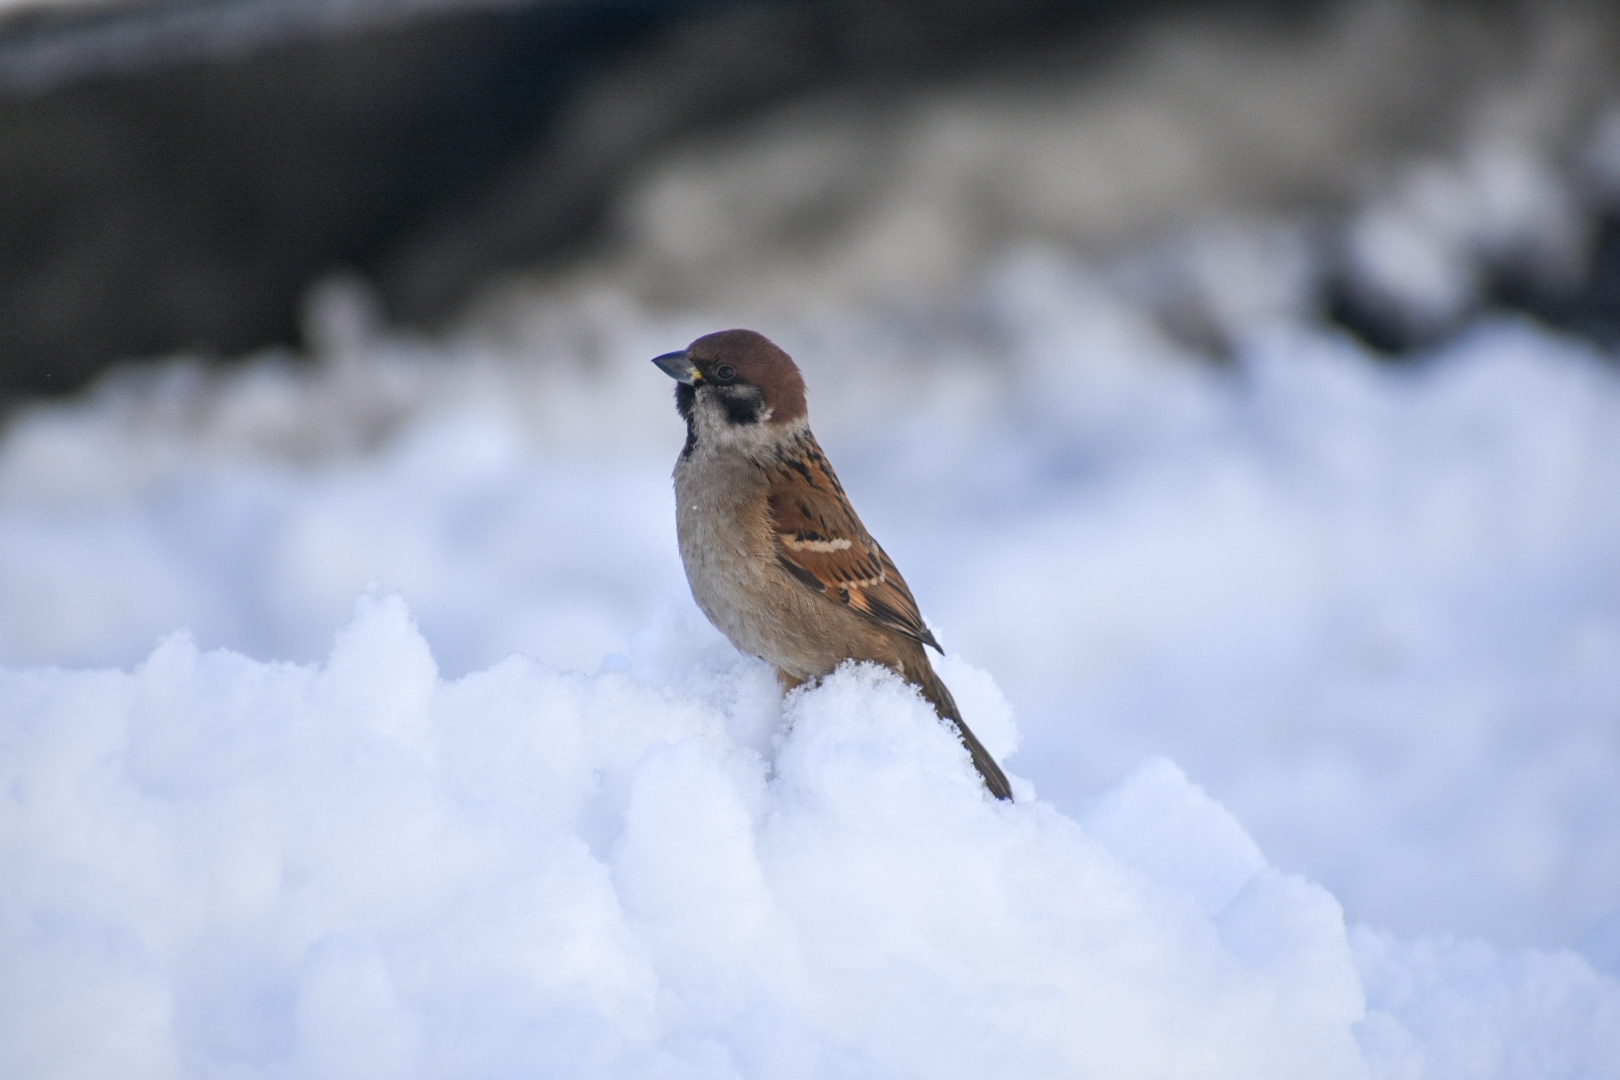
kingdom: Animalia
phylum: Chordata
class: Aves
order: Passeriformes
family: Passeridae
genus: Passer
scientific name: Passer montanus
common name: Eurasian tree sparrow
